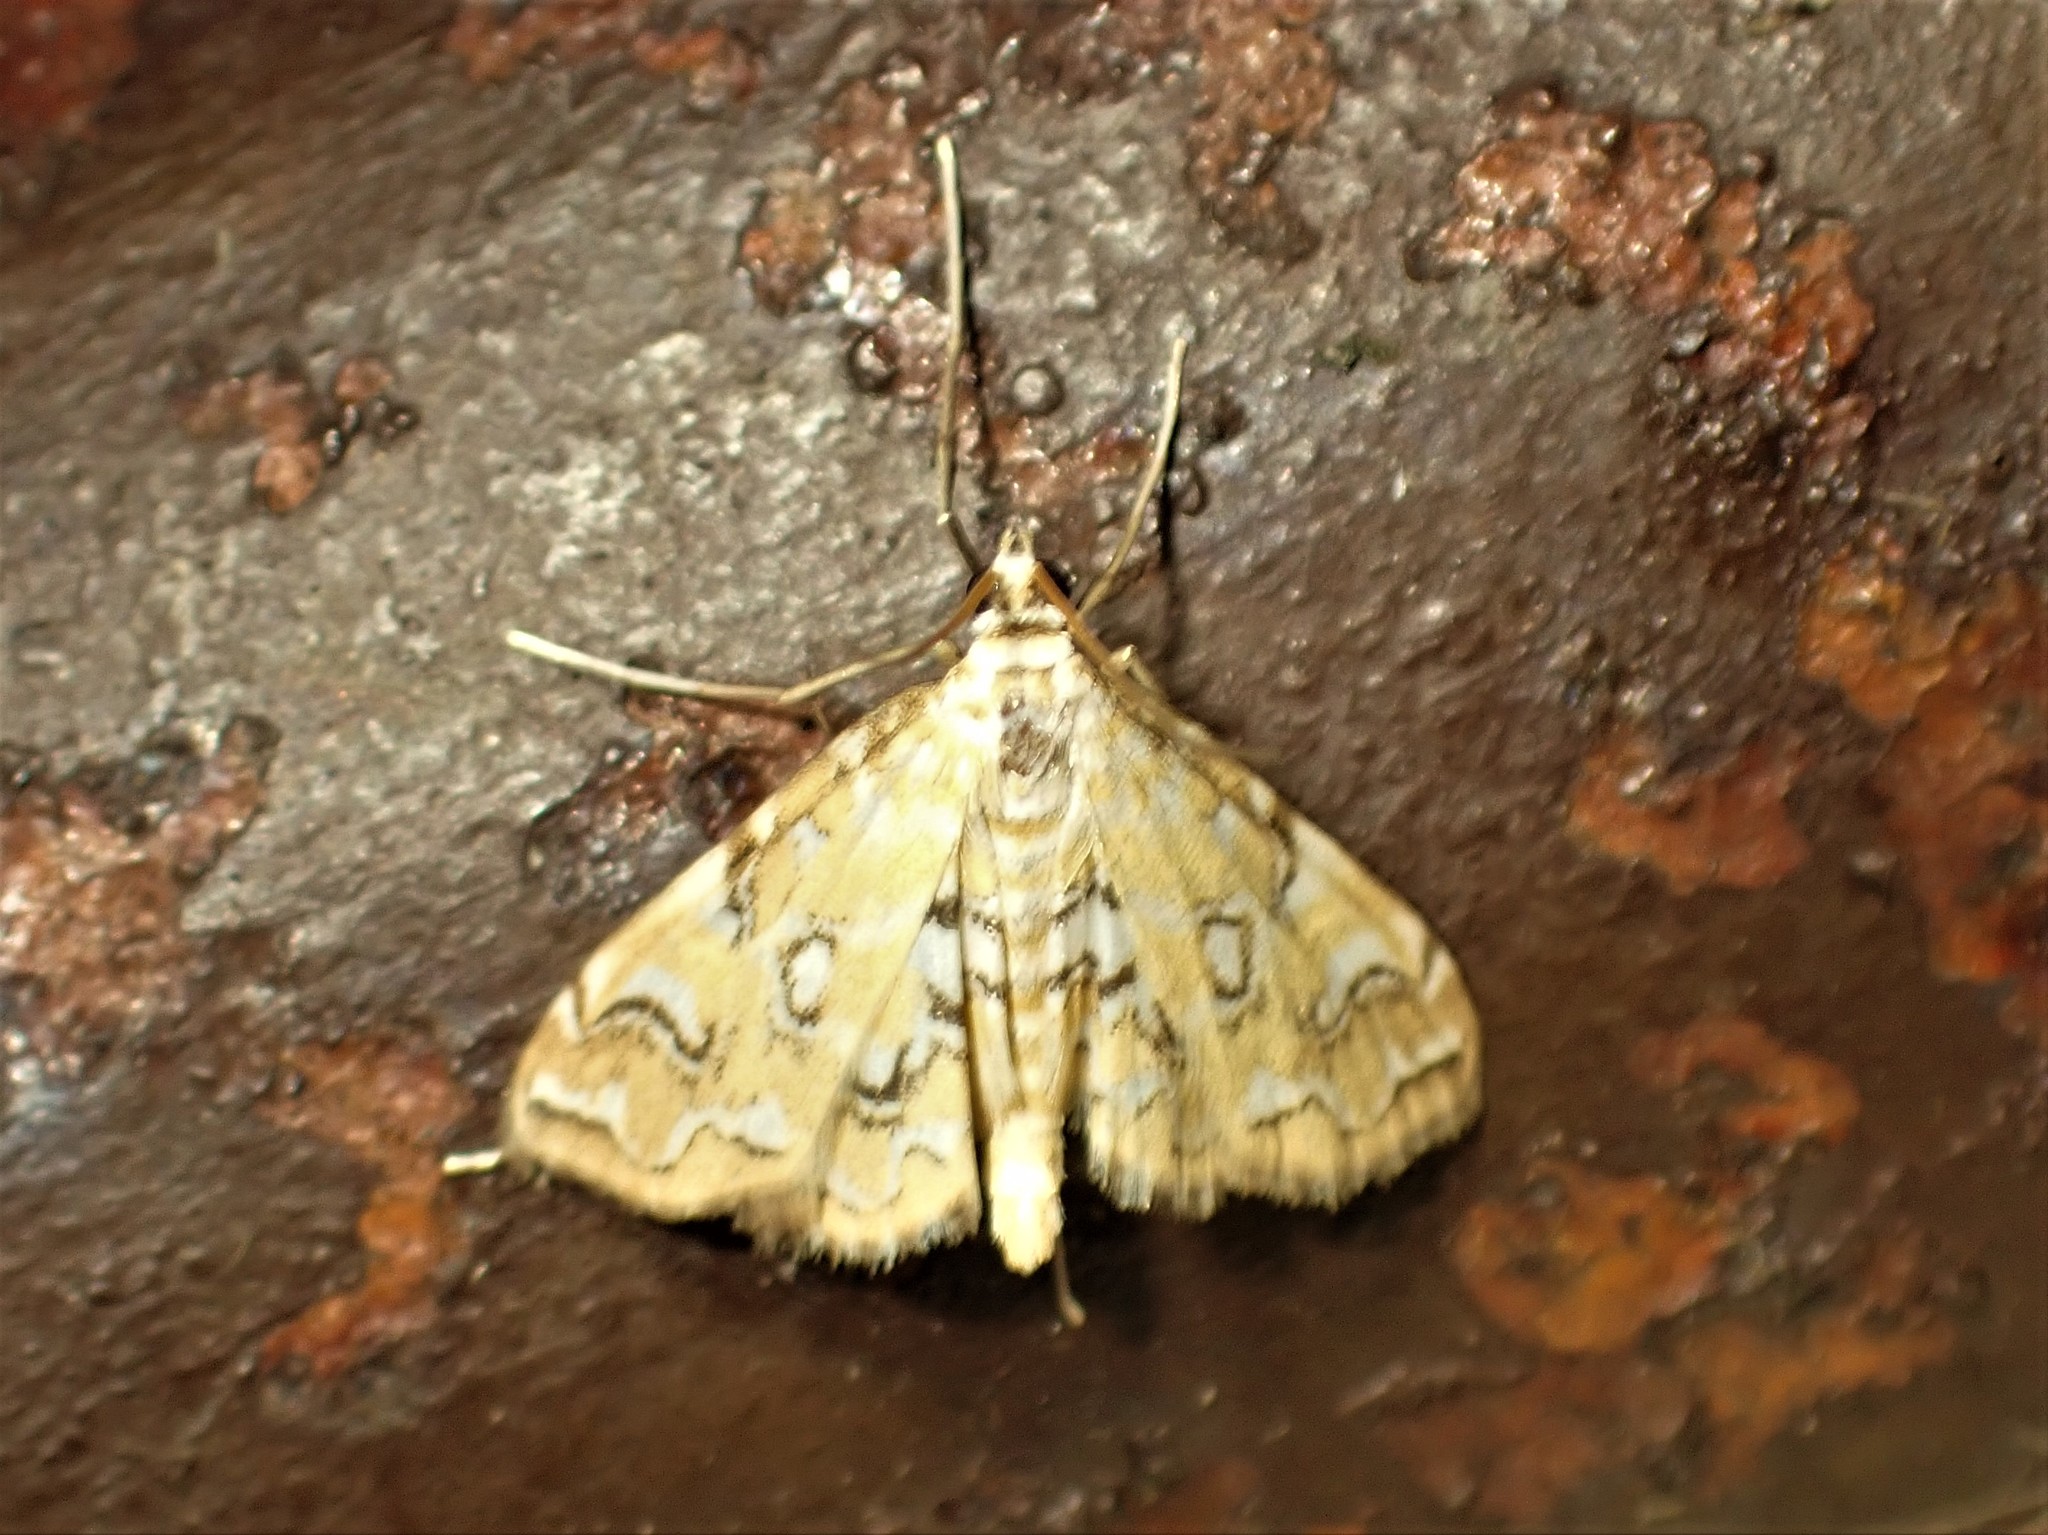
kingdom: Animalia
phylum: Arthropoda
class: Insecta
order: Lepidoptera
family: Crambidae
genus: Elophila
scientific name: Elophila icciusalis
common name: Pondside pyralid moth
